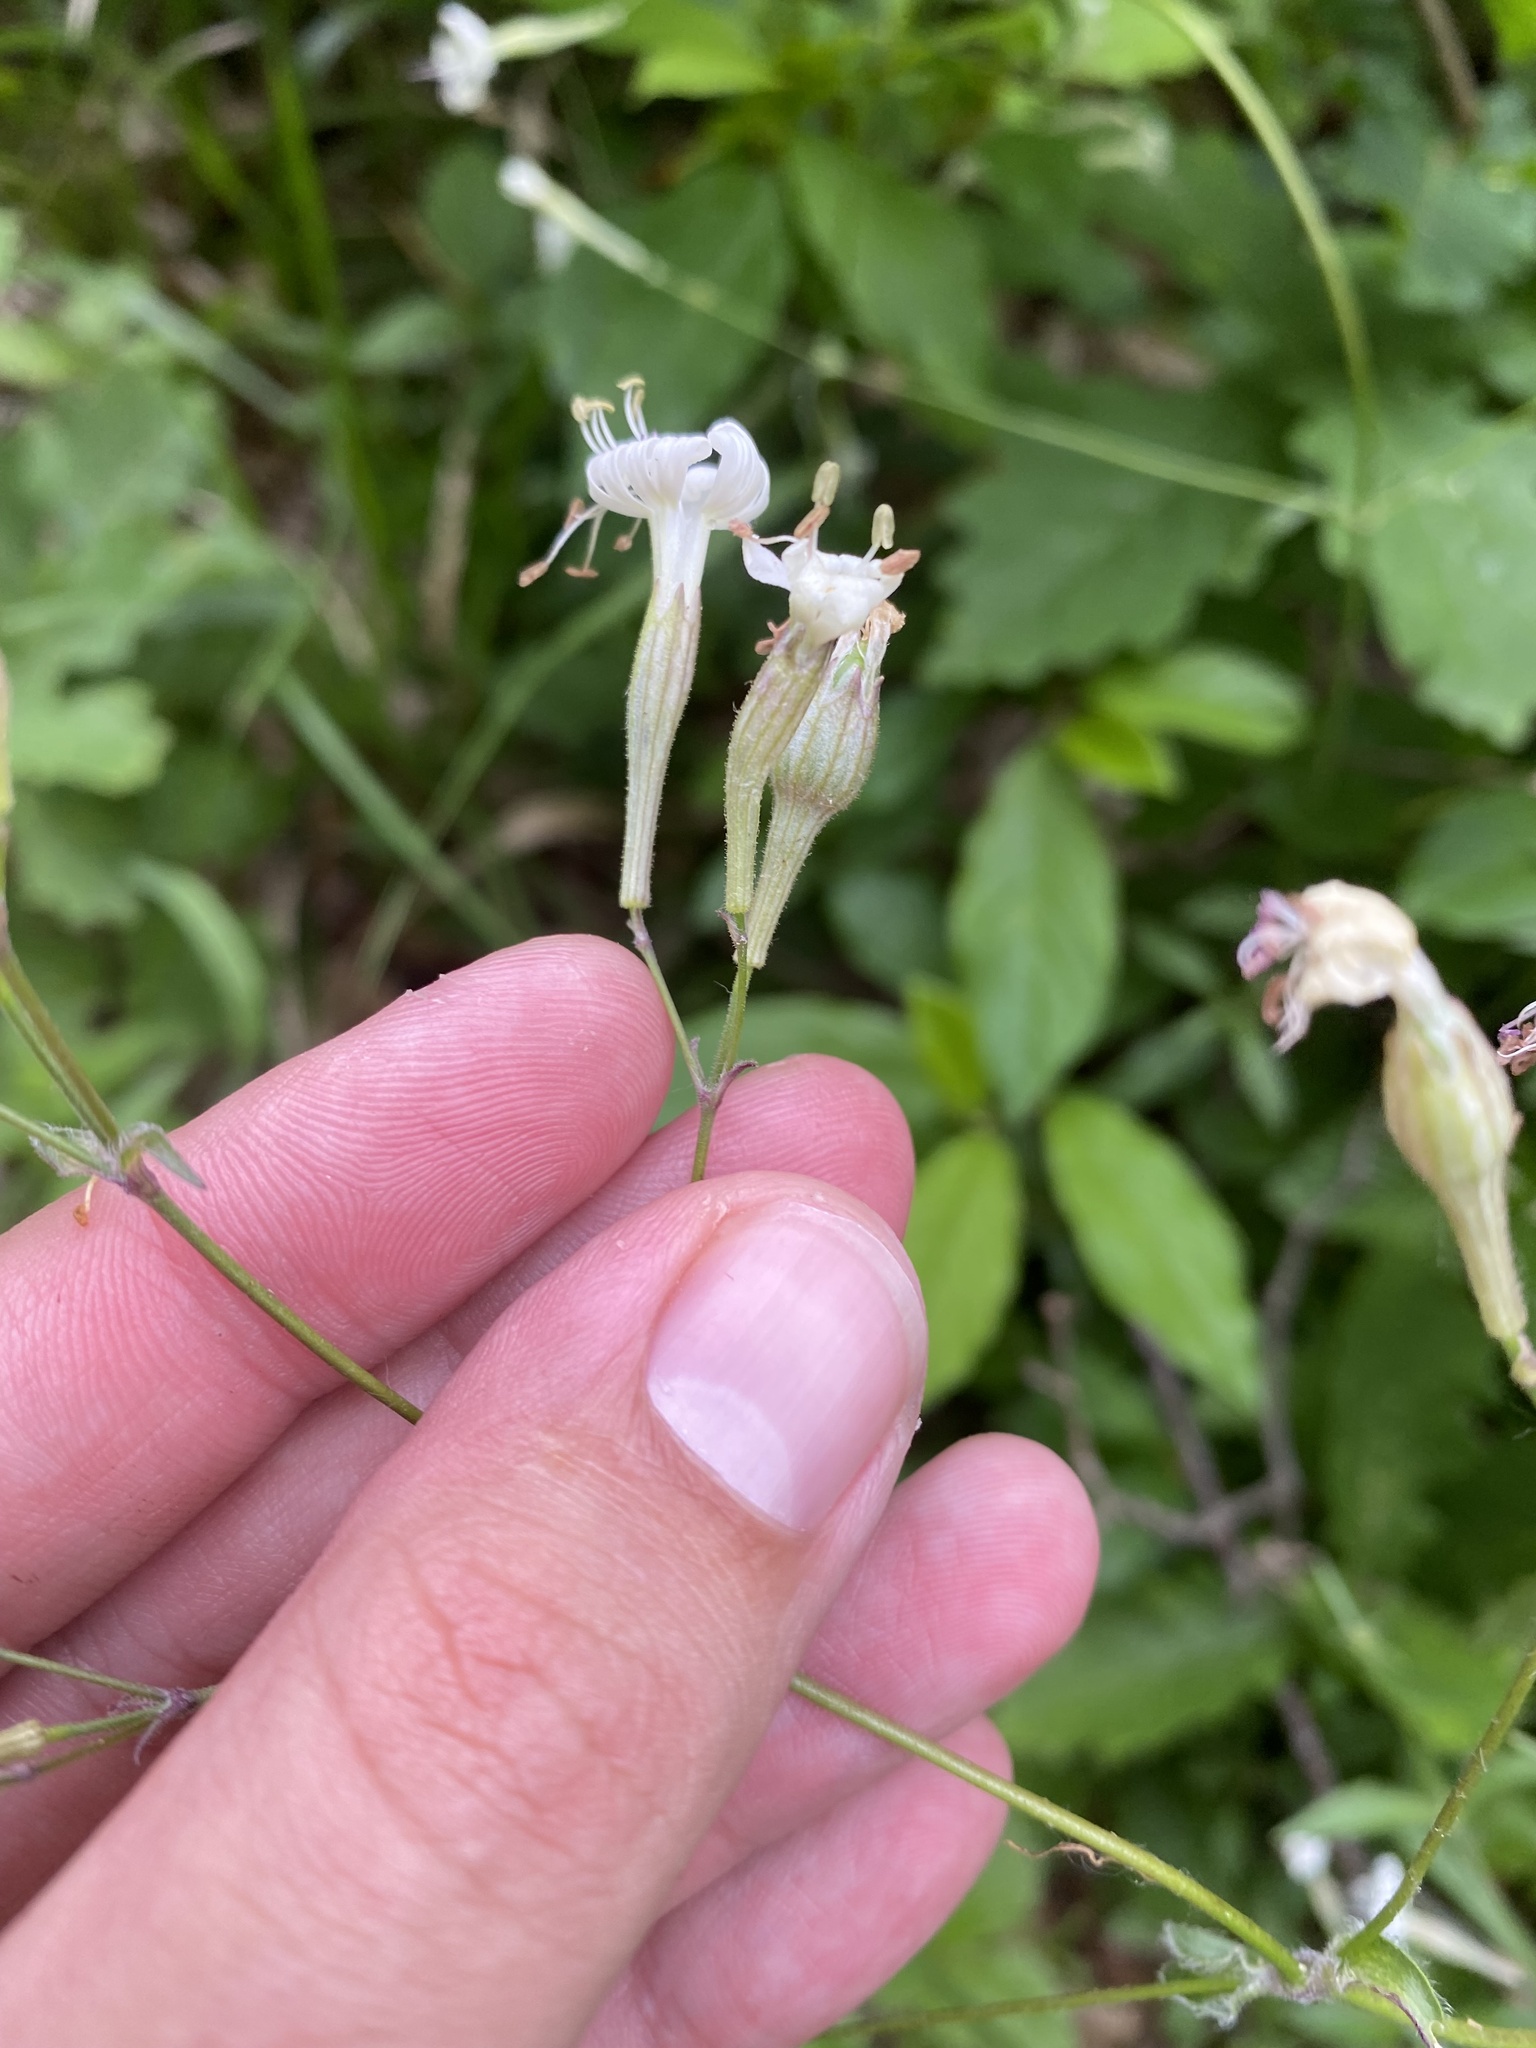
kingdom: Plantae
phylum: Tracheophyta
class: Magnoliopsida
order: Caryophyllales
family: Caryophyllaceae
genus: Silene
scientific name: Silene italica
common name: Italian catchfly
